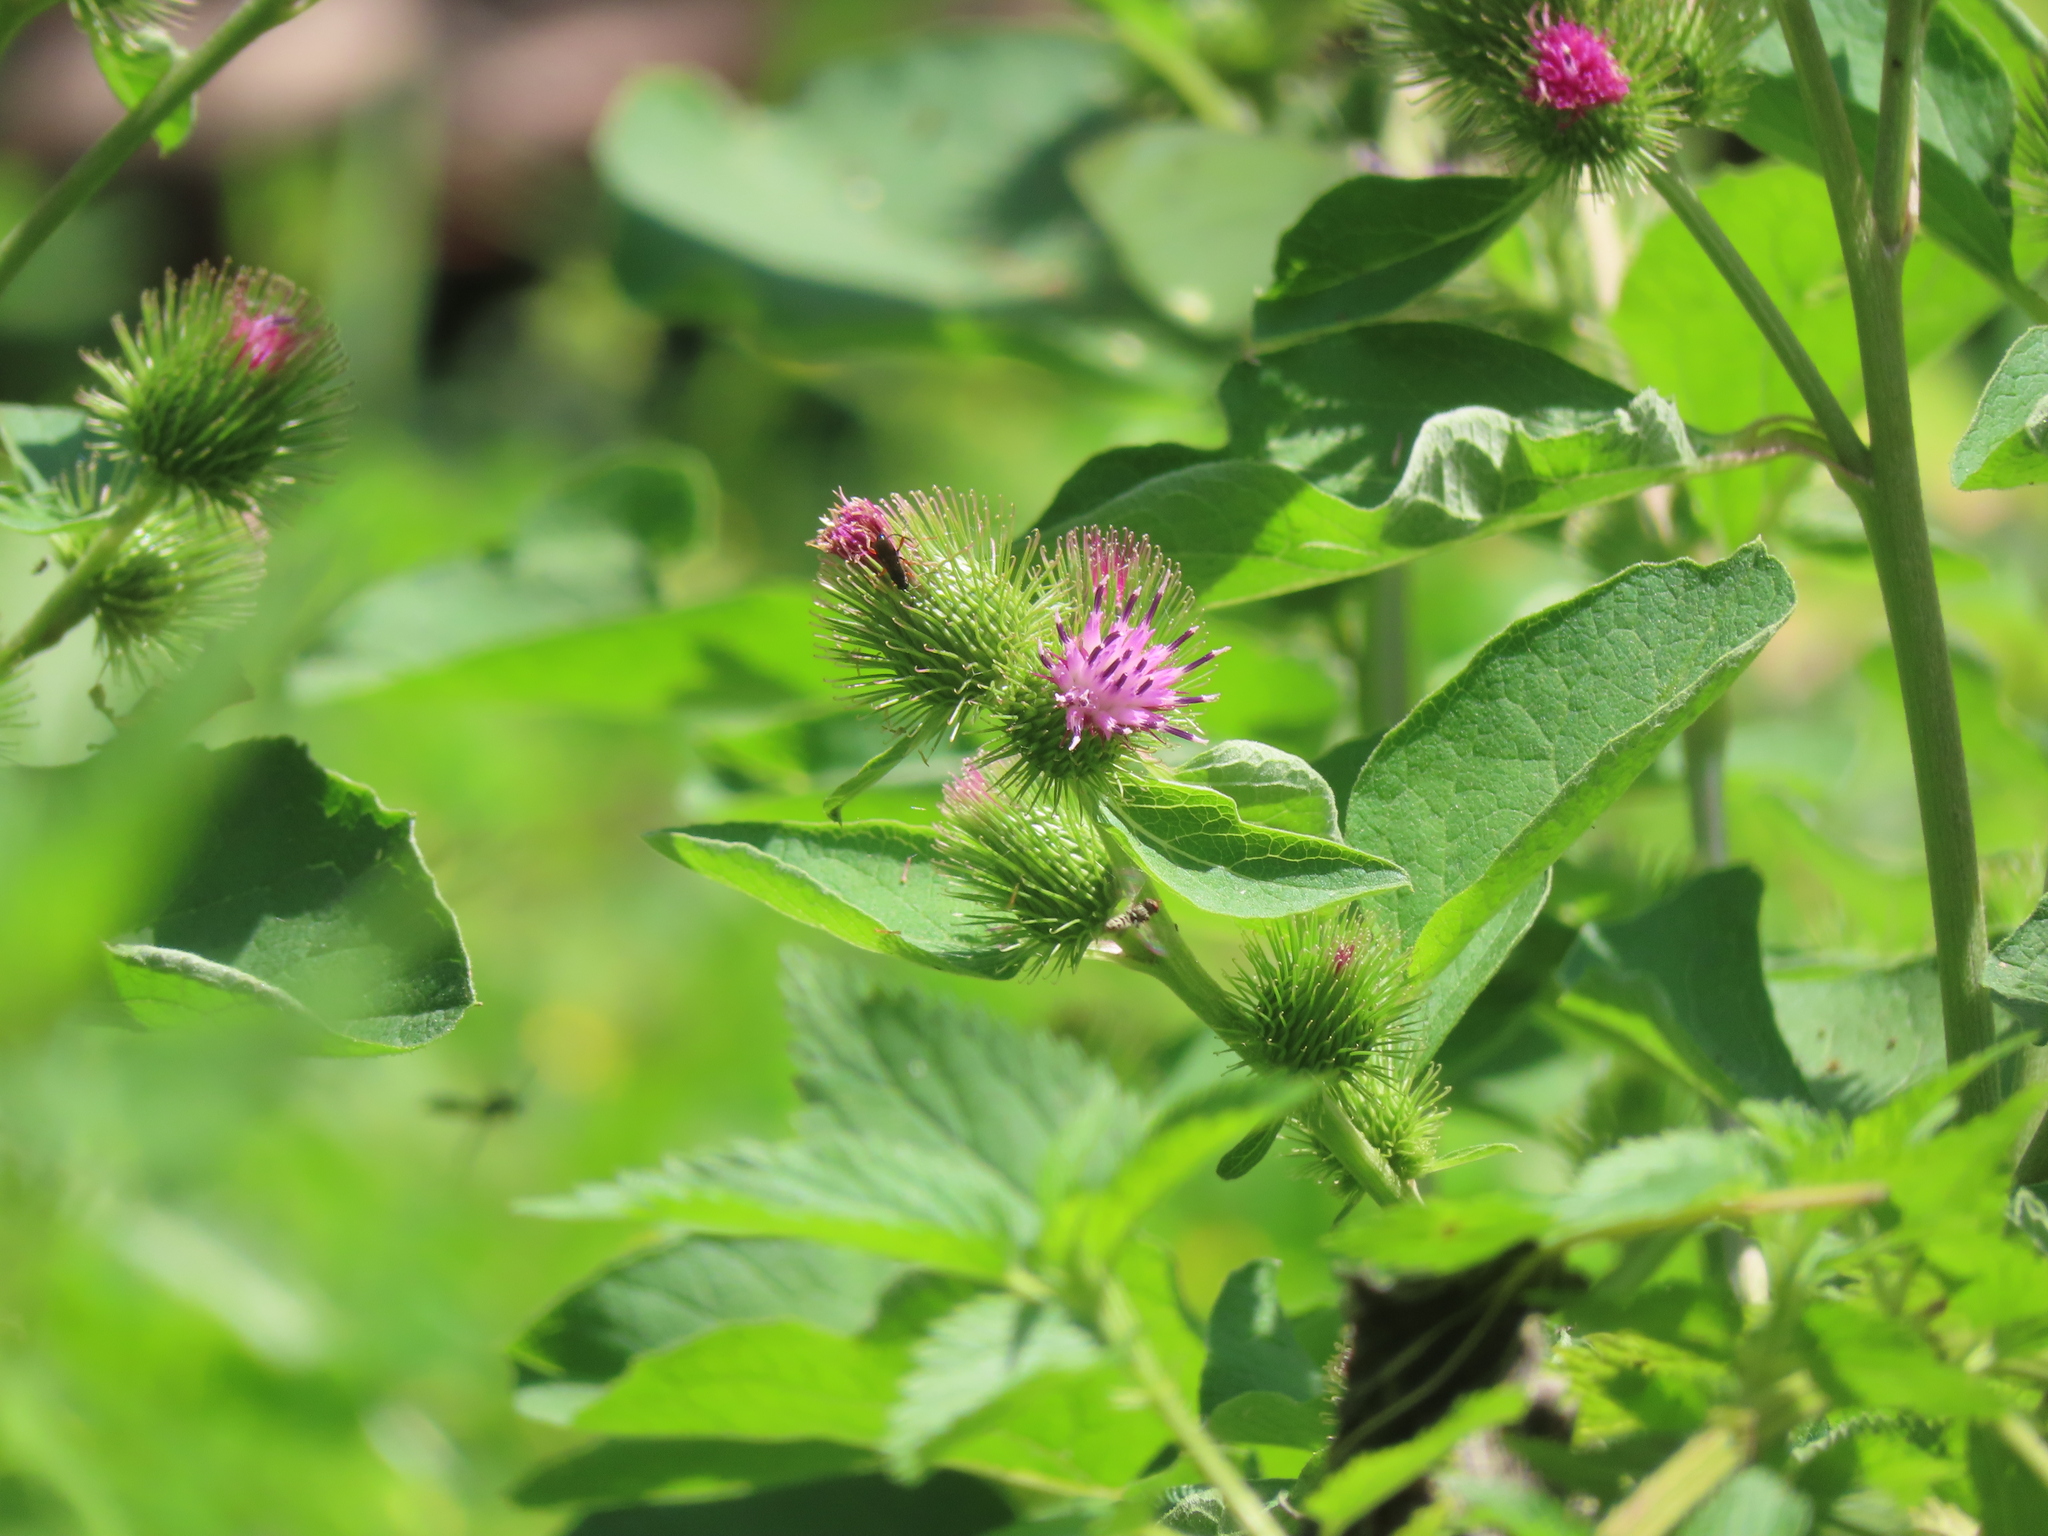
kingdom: Plantae
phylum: Tracheophyta
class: Magnoliopsida
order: Asterales
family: Asteraceae
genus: Arctium
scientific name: Arctium minus
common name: Lesser burdock
